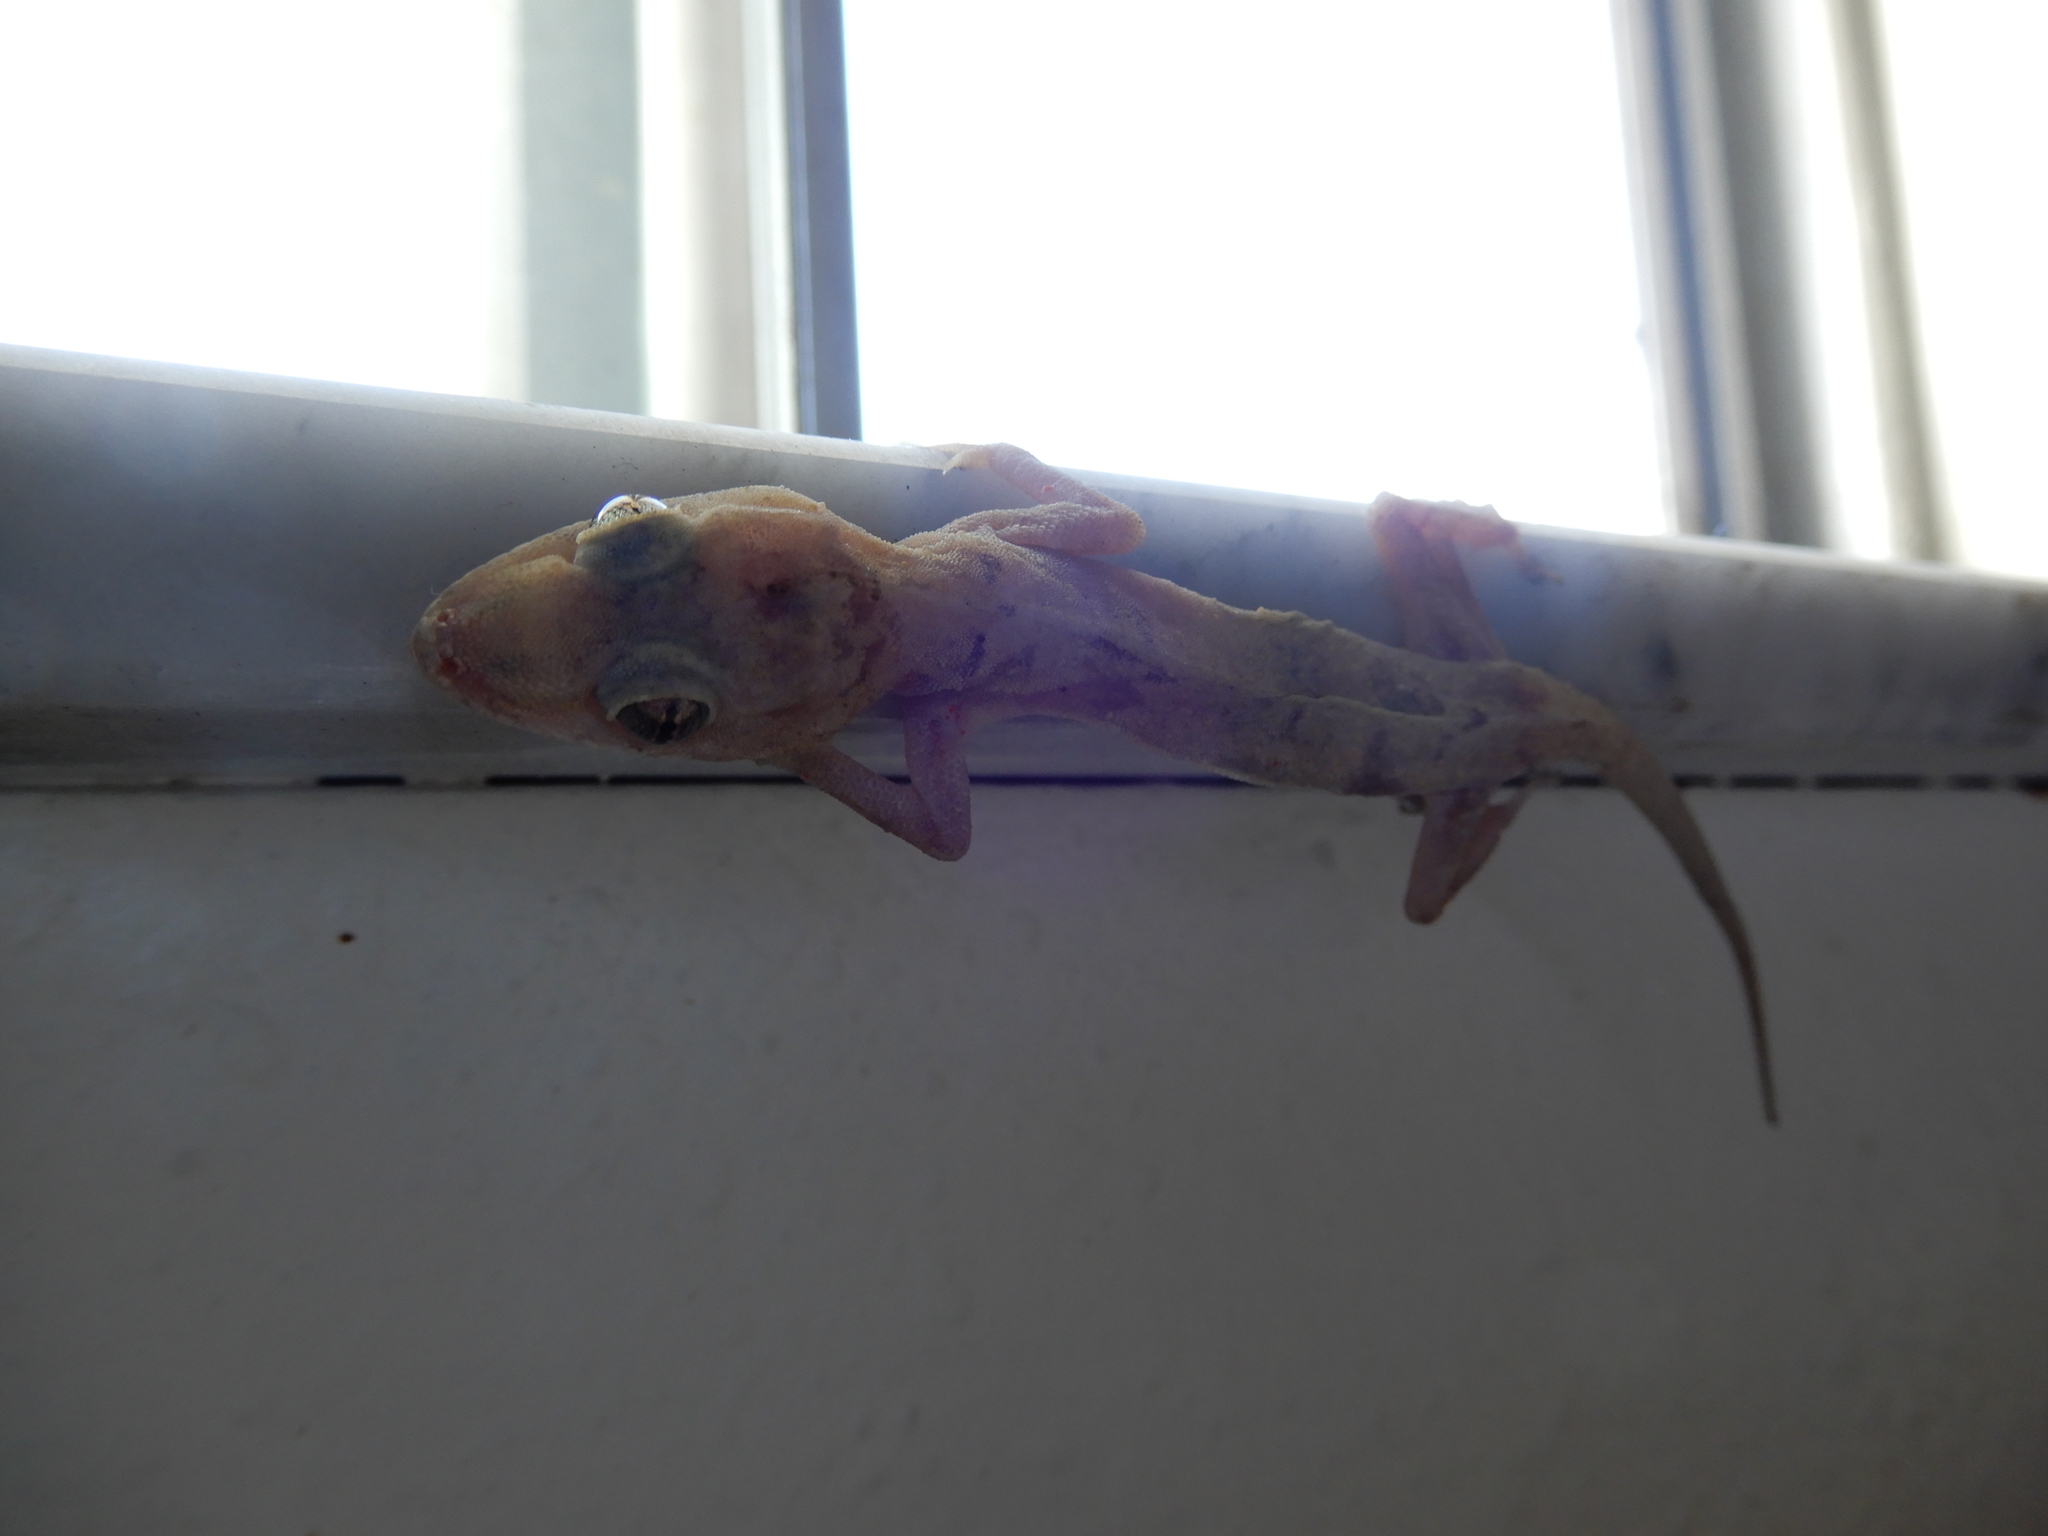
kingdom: Animalia
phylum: Chordata
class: Squamata
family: Gekkonidae
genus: Hemidactylus
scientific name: Hemidactylus mabouia
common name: House gecko
